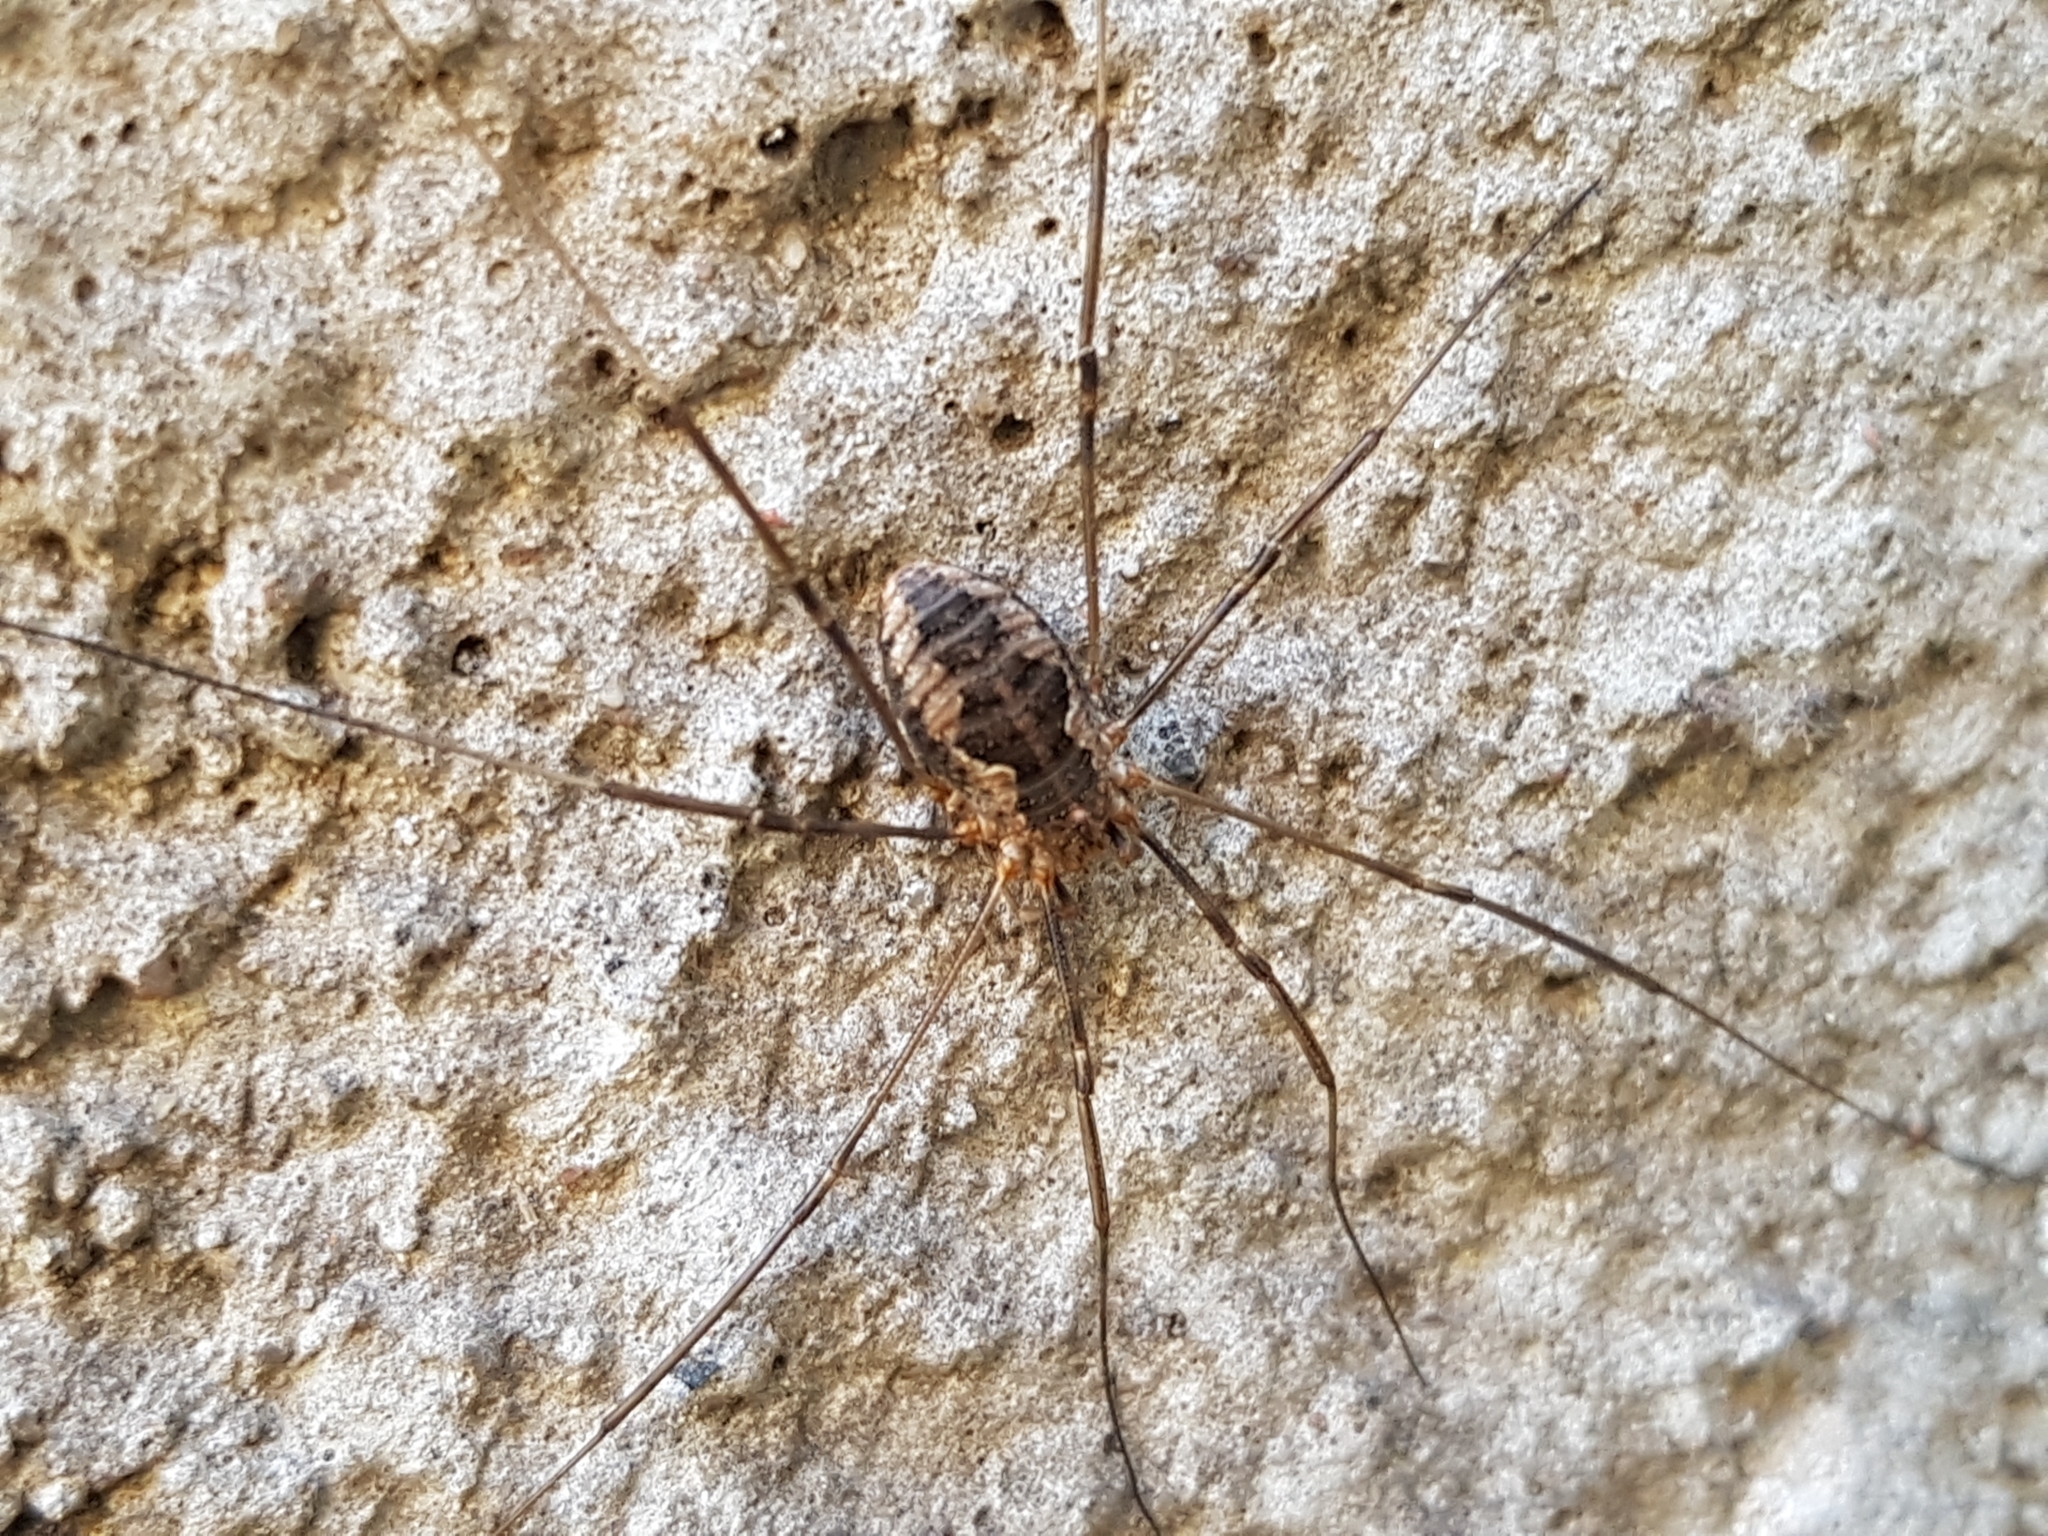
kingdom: Animalia
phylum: Arthropoda
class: Arachnida
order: Opiliones
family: Phalangiidae
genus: Phalangium
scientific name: Phalangium opilio
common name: Daddy longleg
